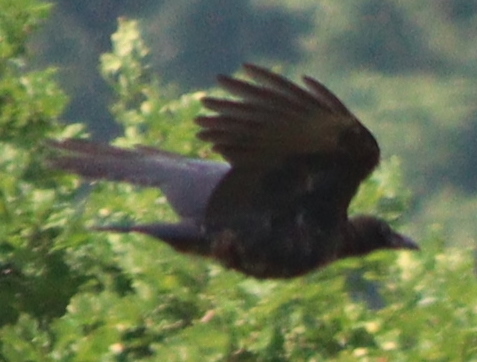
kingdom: Animalia
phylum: Chordata
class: Aves
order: Passeriformes
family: Corvidae
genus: Corvus
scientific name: Corvus corone
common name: Carrion crow
